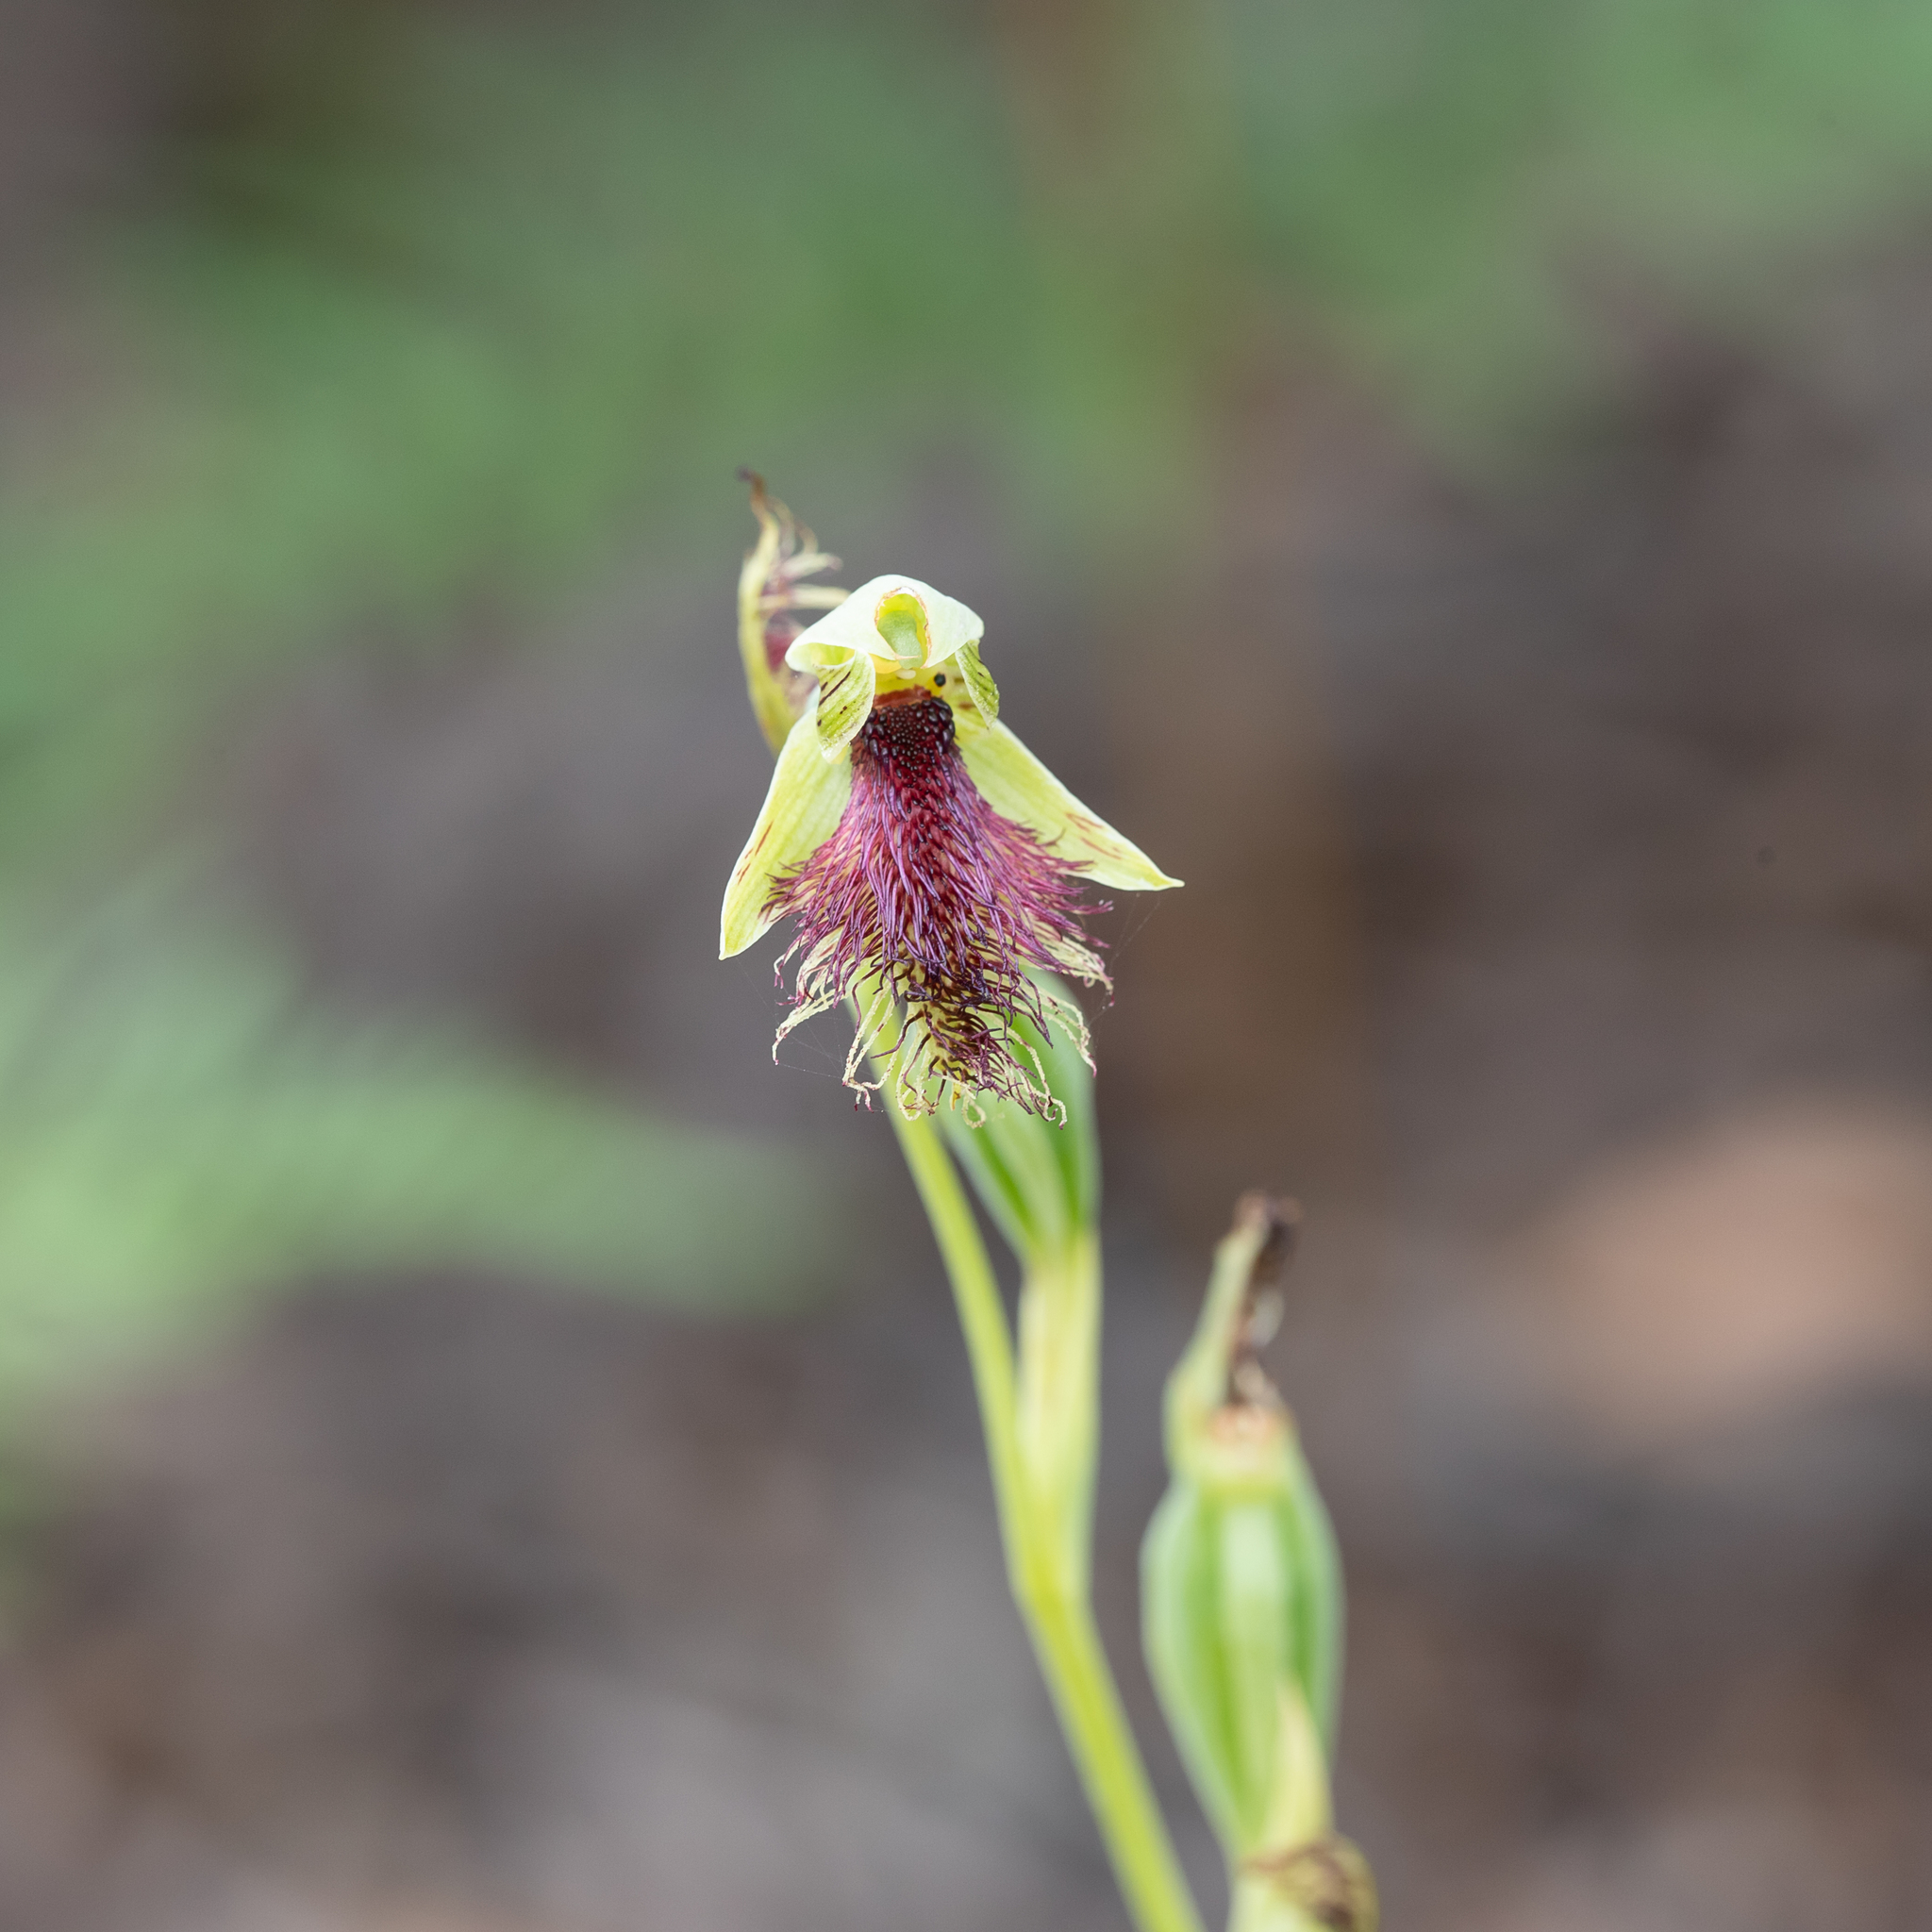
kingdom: Plantae
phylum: Tracheophyta
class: Liliopsida
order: Asparagales
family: Orchidaceae
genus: Calochilus
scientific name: Calochilus robertsonii
